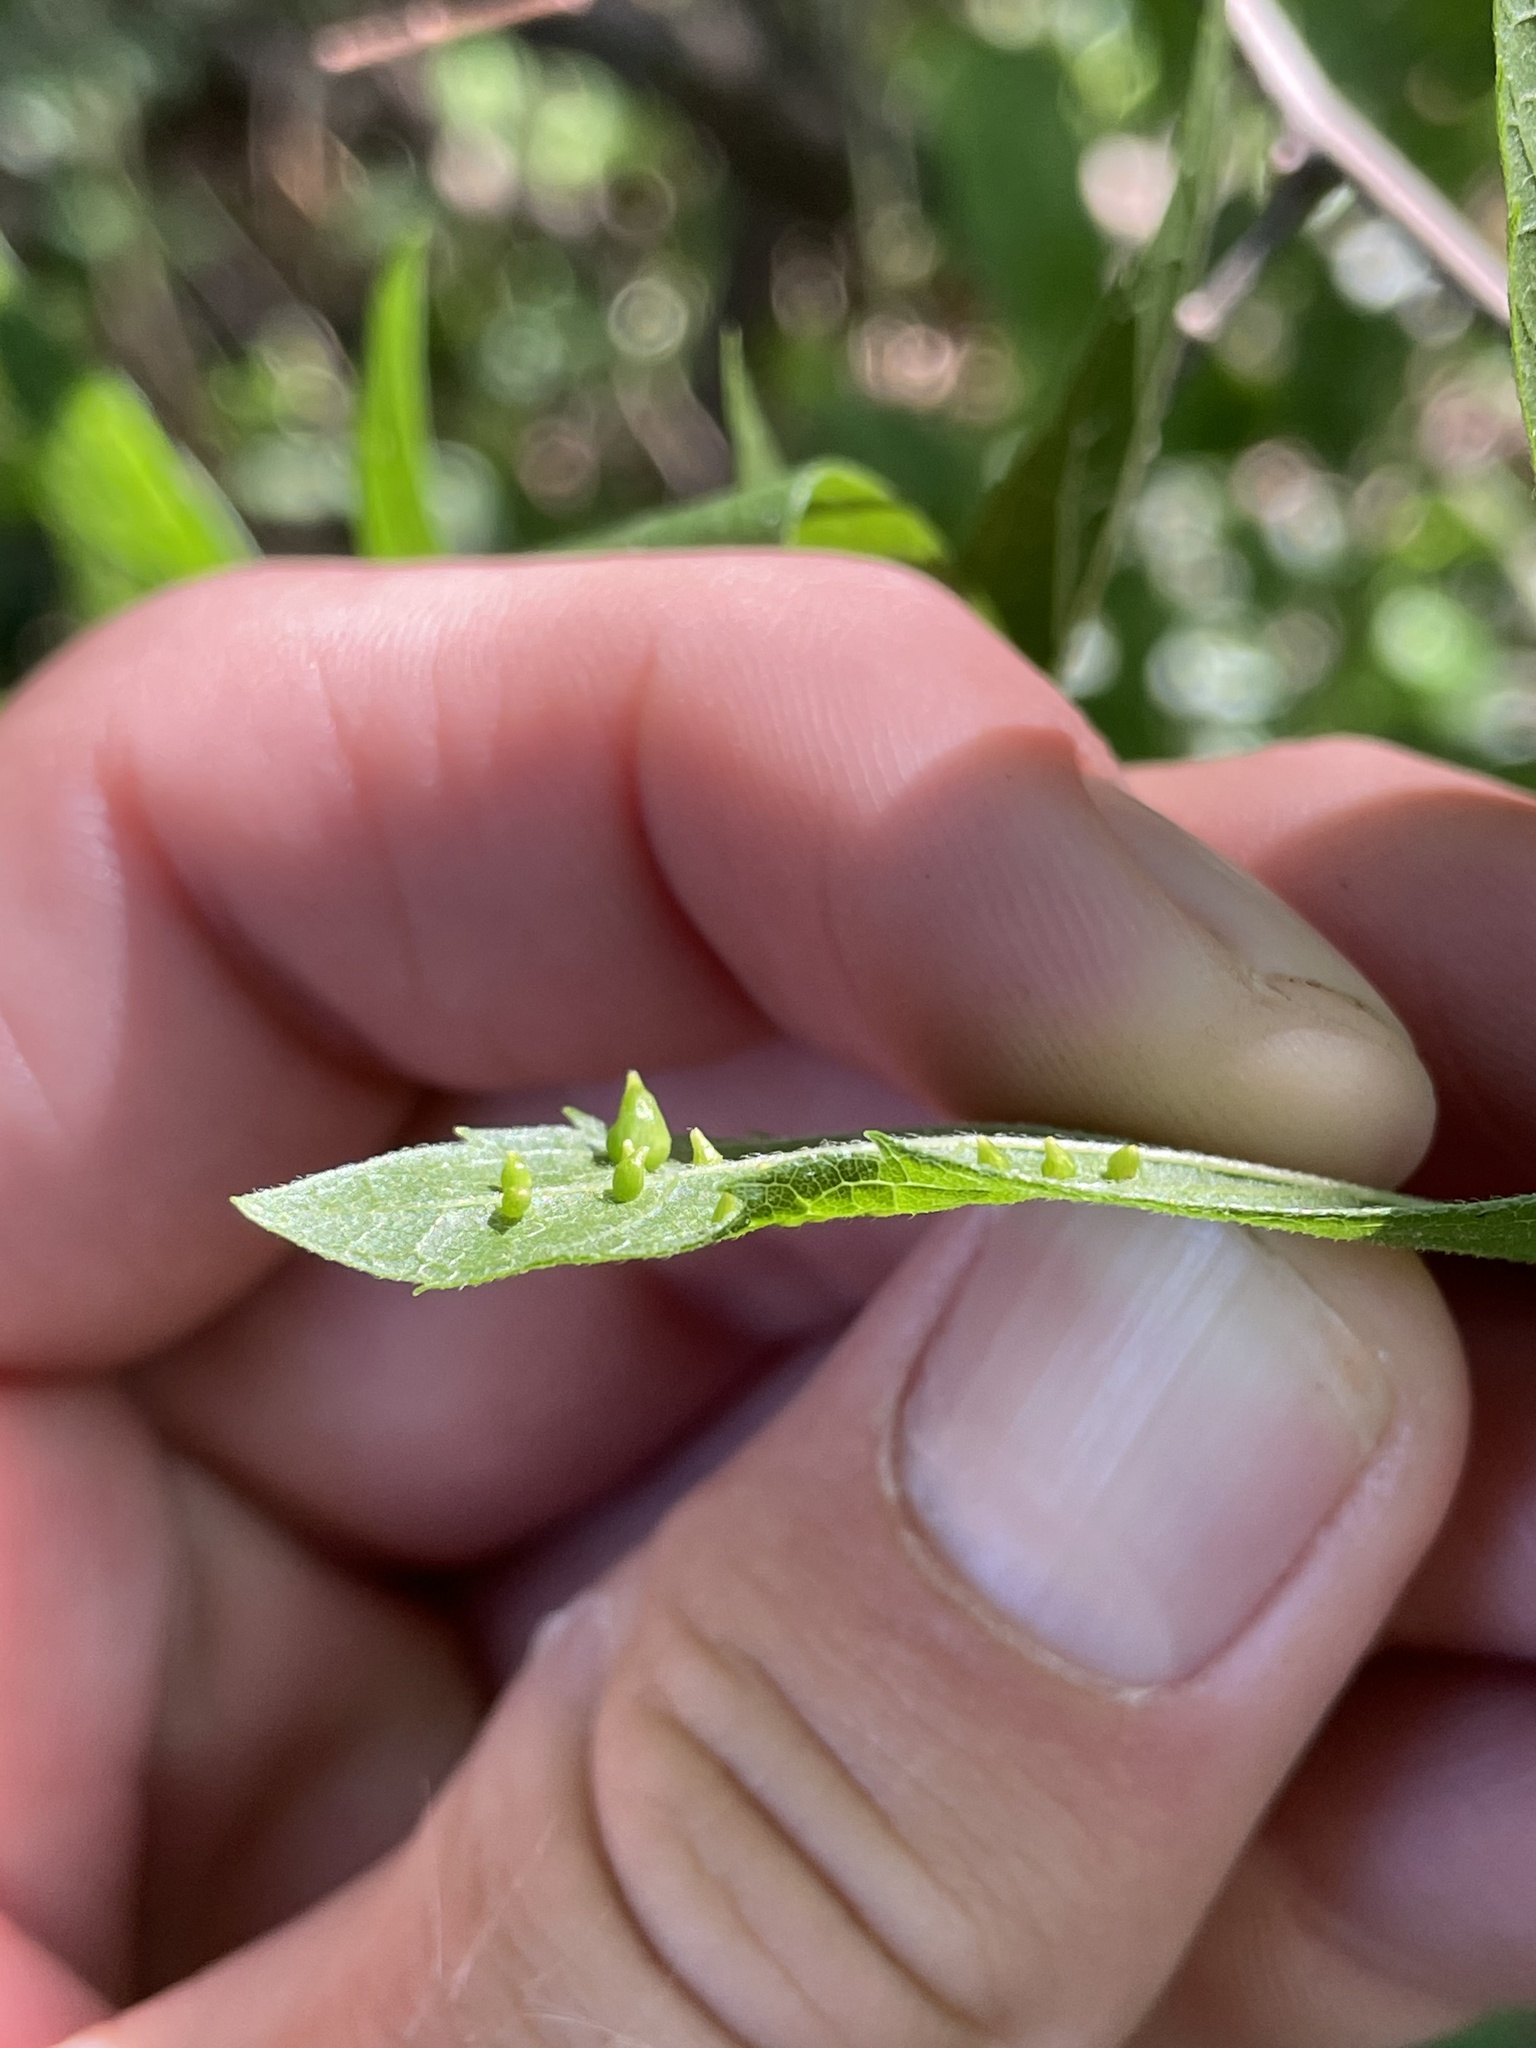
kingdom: Animalia
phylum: Arthropoda
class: Insecta
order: Diptera
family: Cecidomyiidae
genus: Celticecis
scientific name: Celticecis spiniformis
